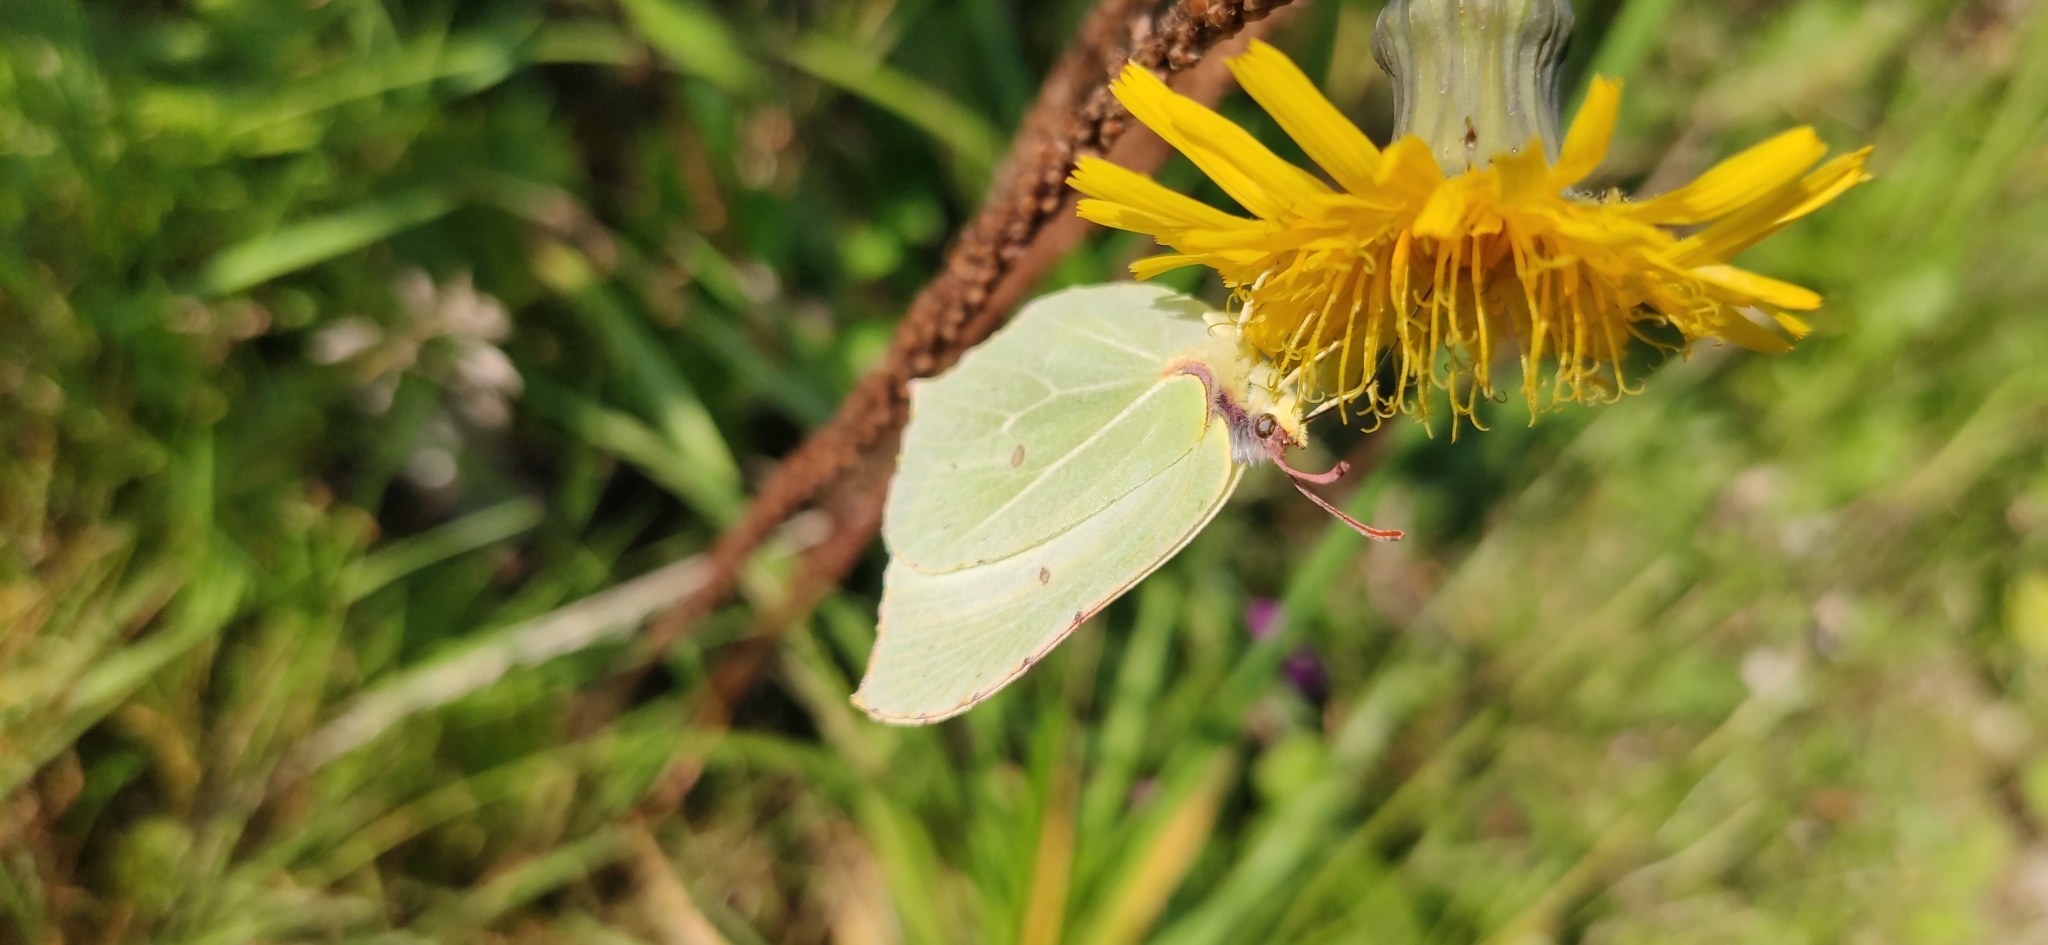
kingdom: Animalia
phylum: Arthropoda
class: Insecta
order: Lepidoptera
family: Pieridae
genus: Gonepteryx
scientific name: Gonepteryx rhamni
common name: Brimstone
